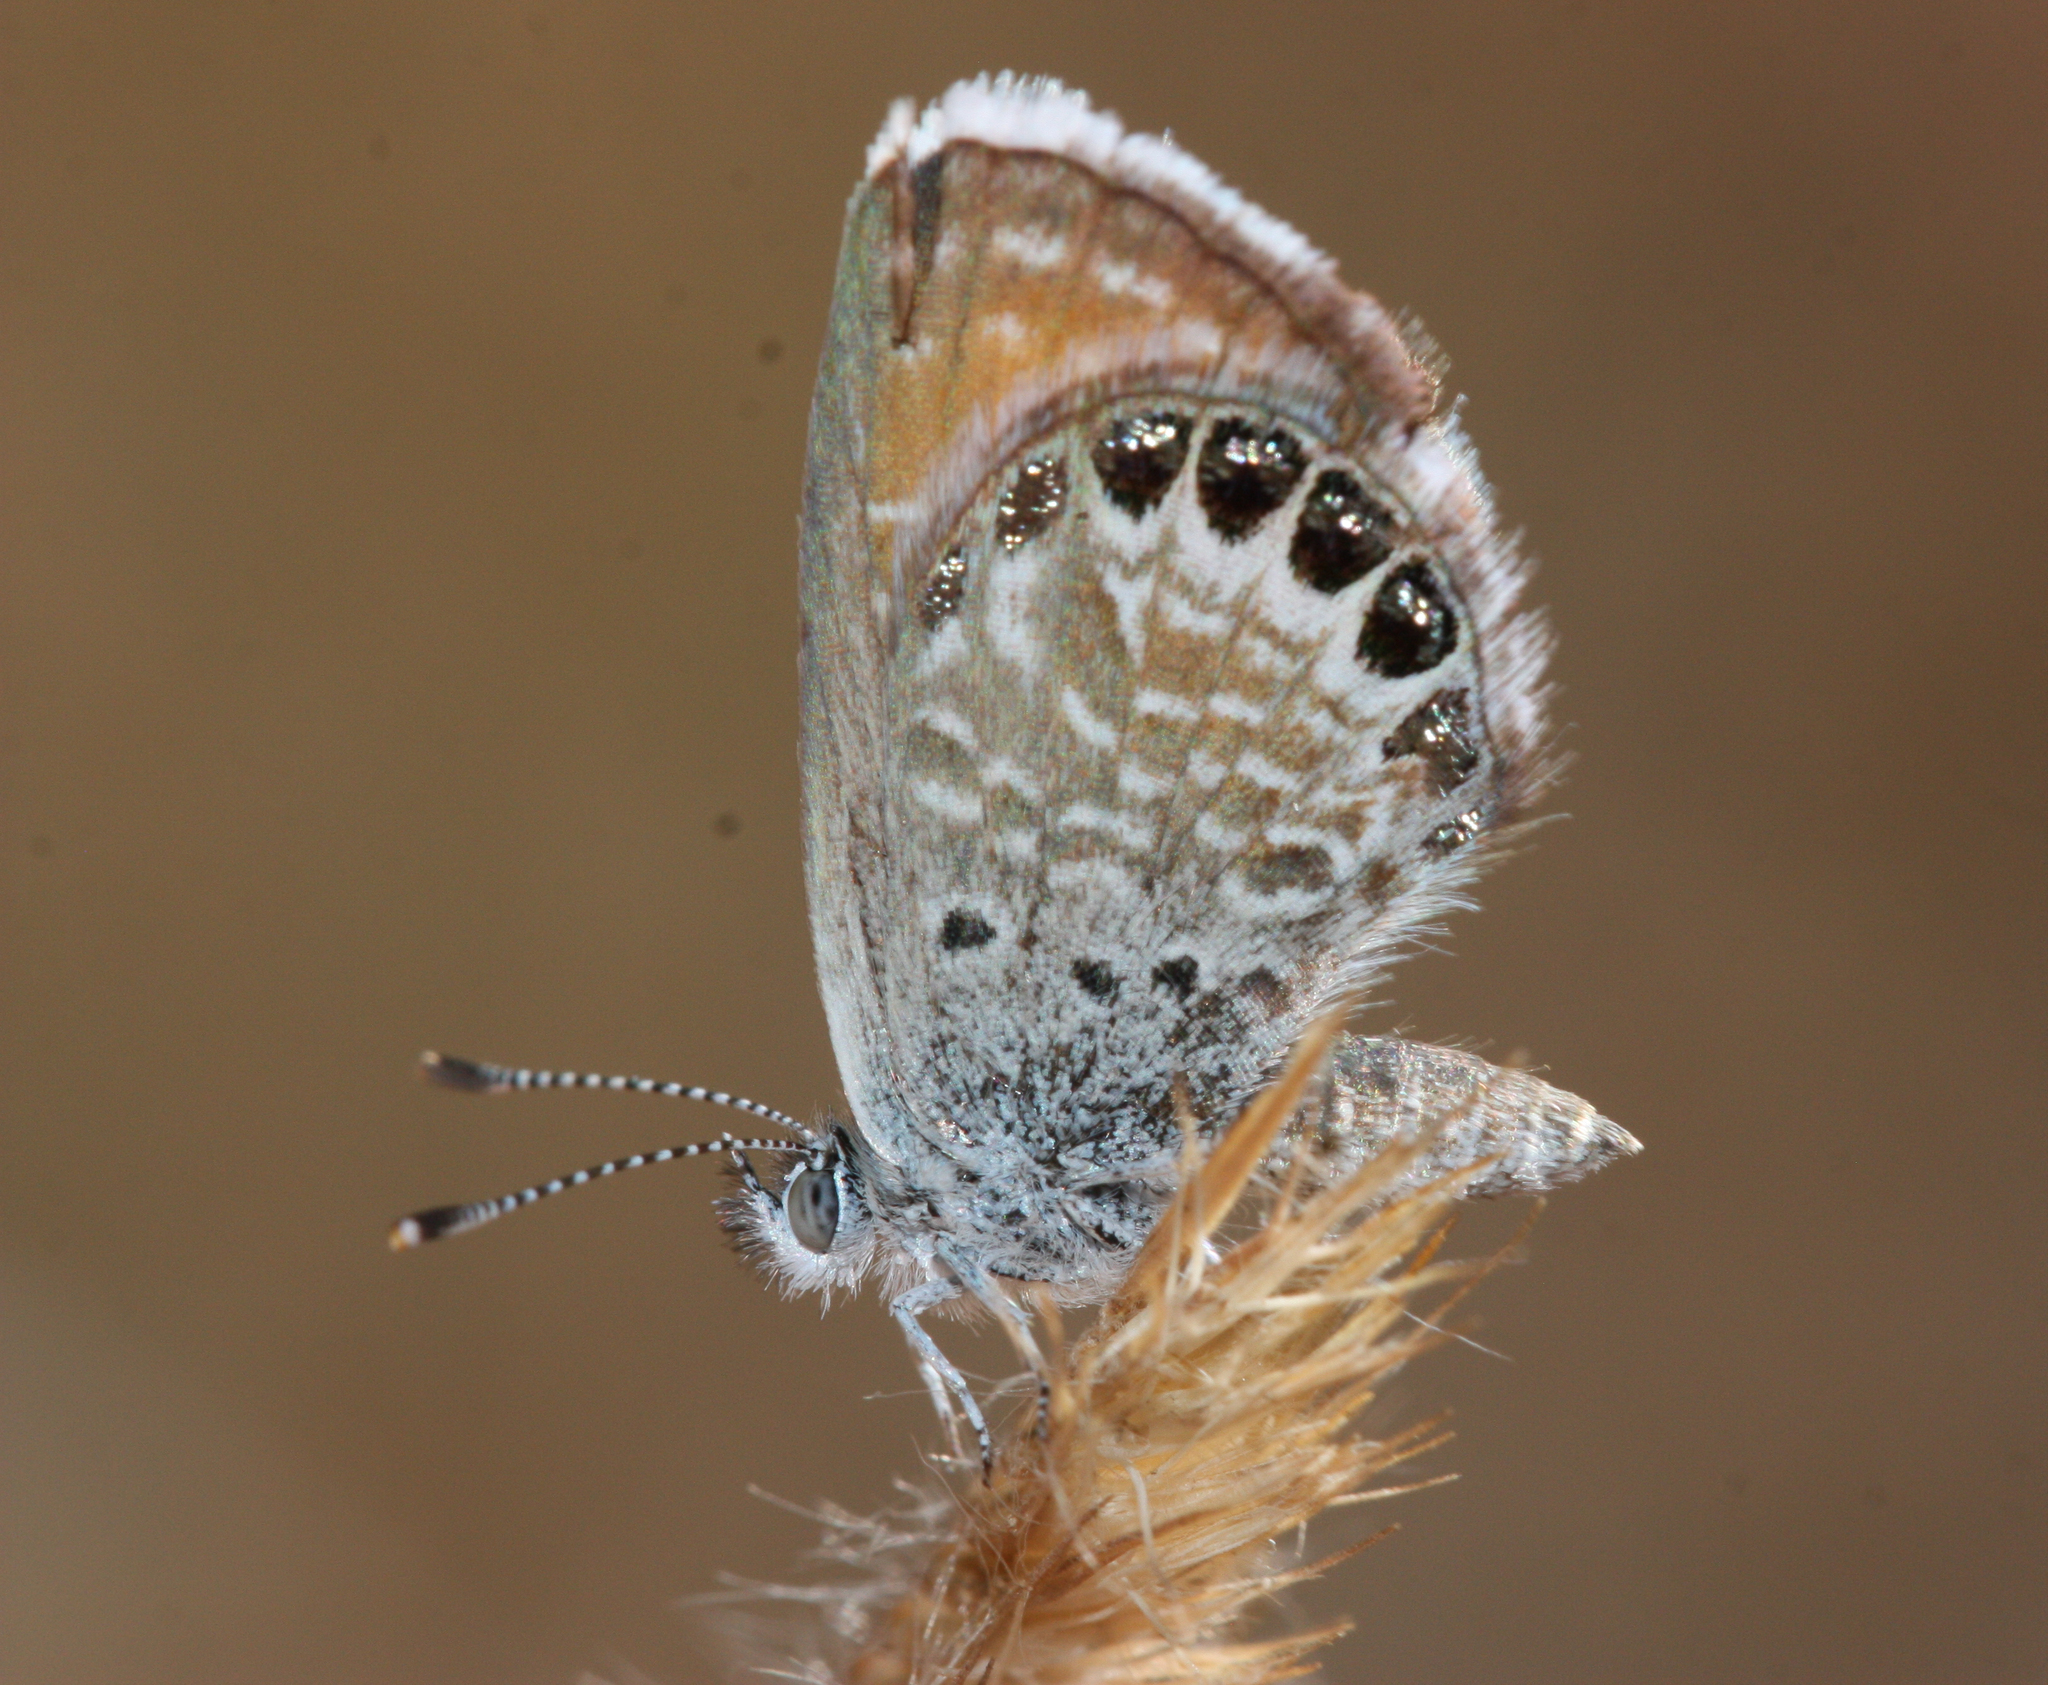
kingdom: Animalia
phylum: Arthropoda
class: Insecta
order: Lepidoptera
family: Lycaenidae
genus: Brephidium
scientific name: Brephidium exilis
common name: Pygmy blue
